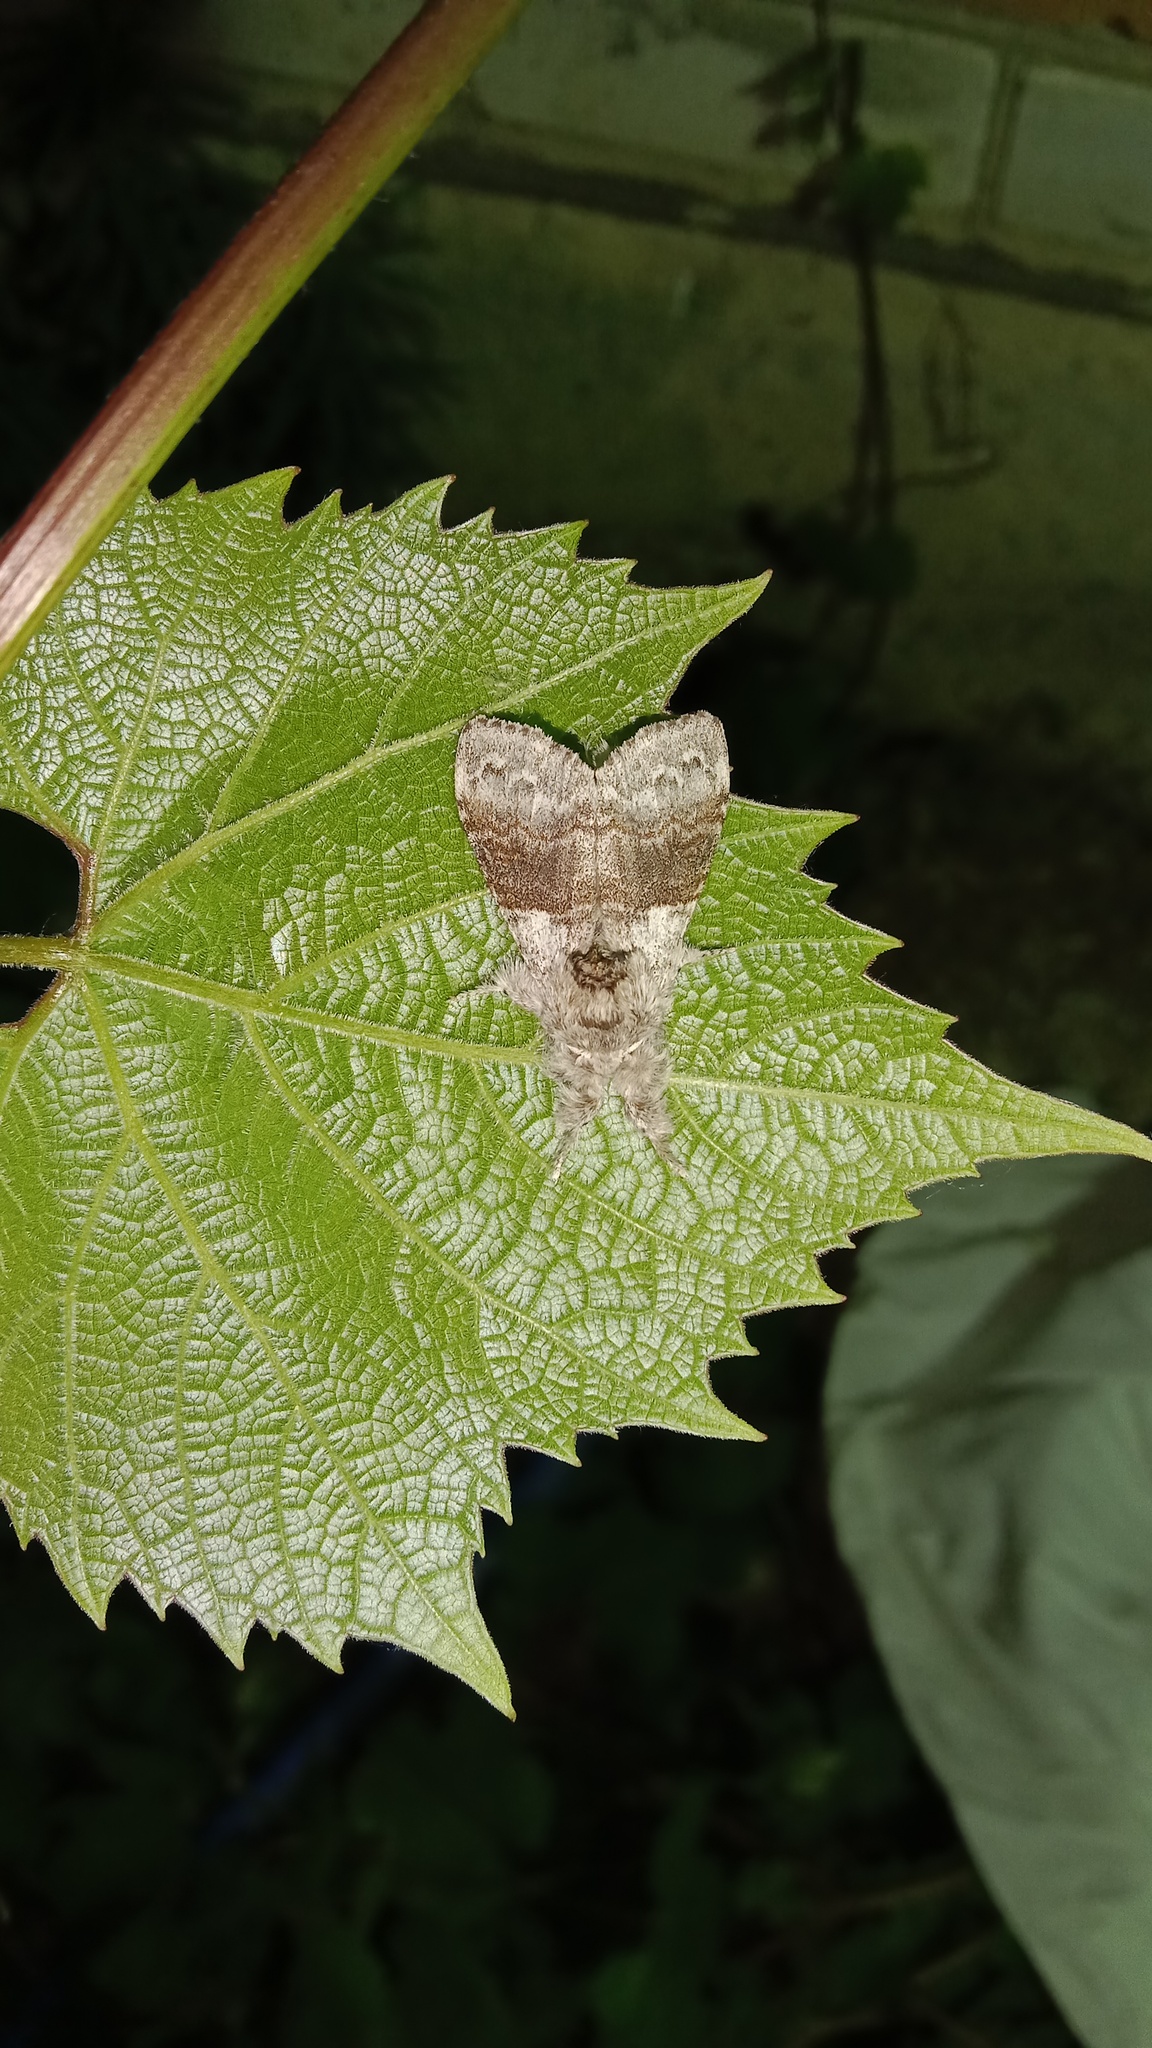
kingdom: Animalia
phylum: Arthropoda
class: Insecta
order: Lepidoptera
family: Erebidae
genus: Calliteara
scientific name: Calliteara pudibunda
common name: Pale tussock
